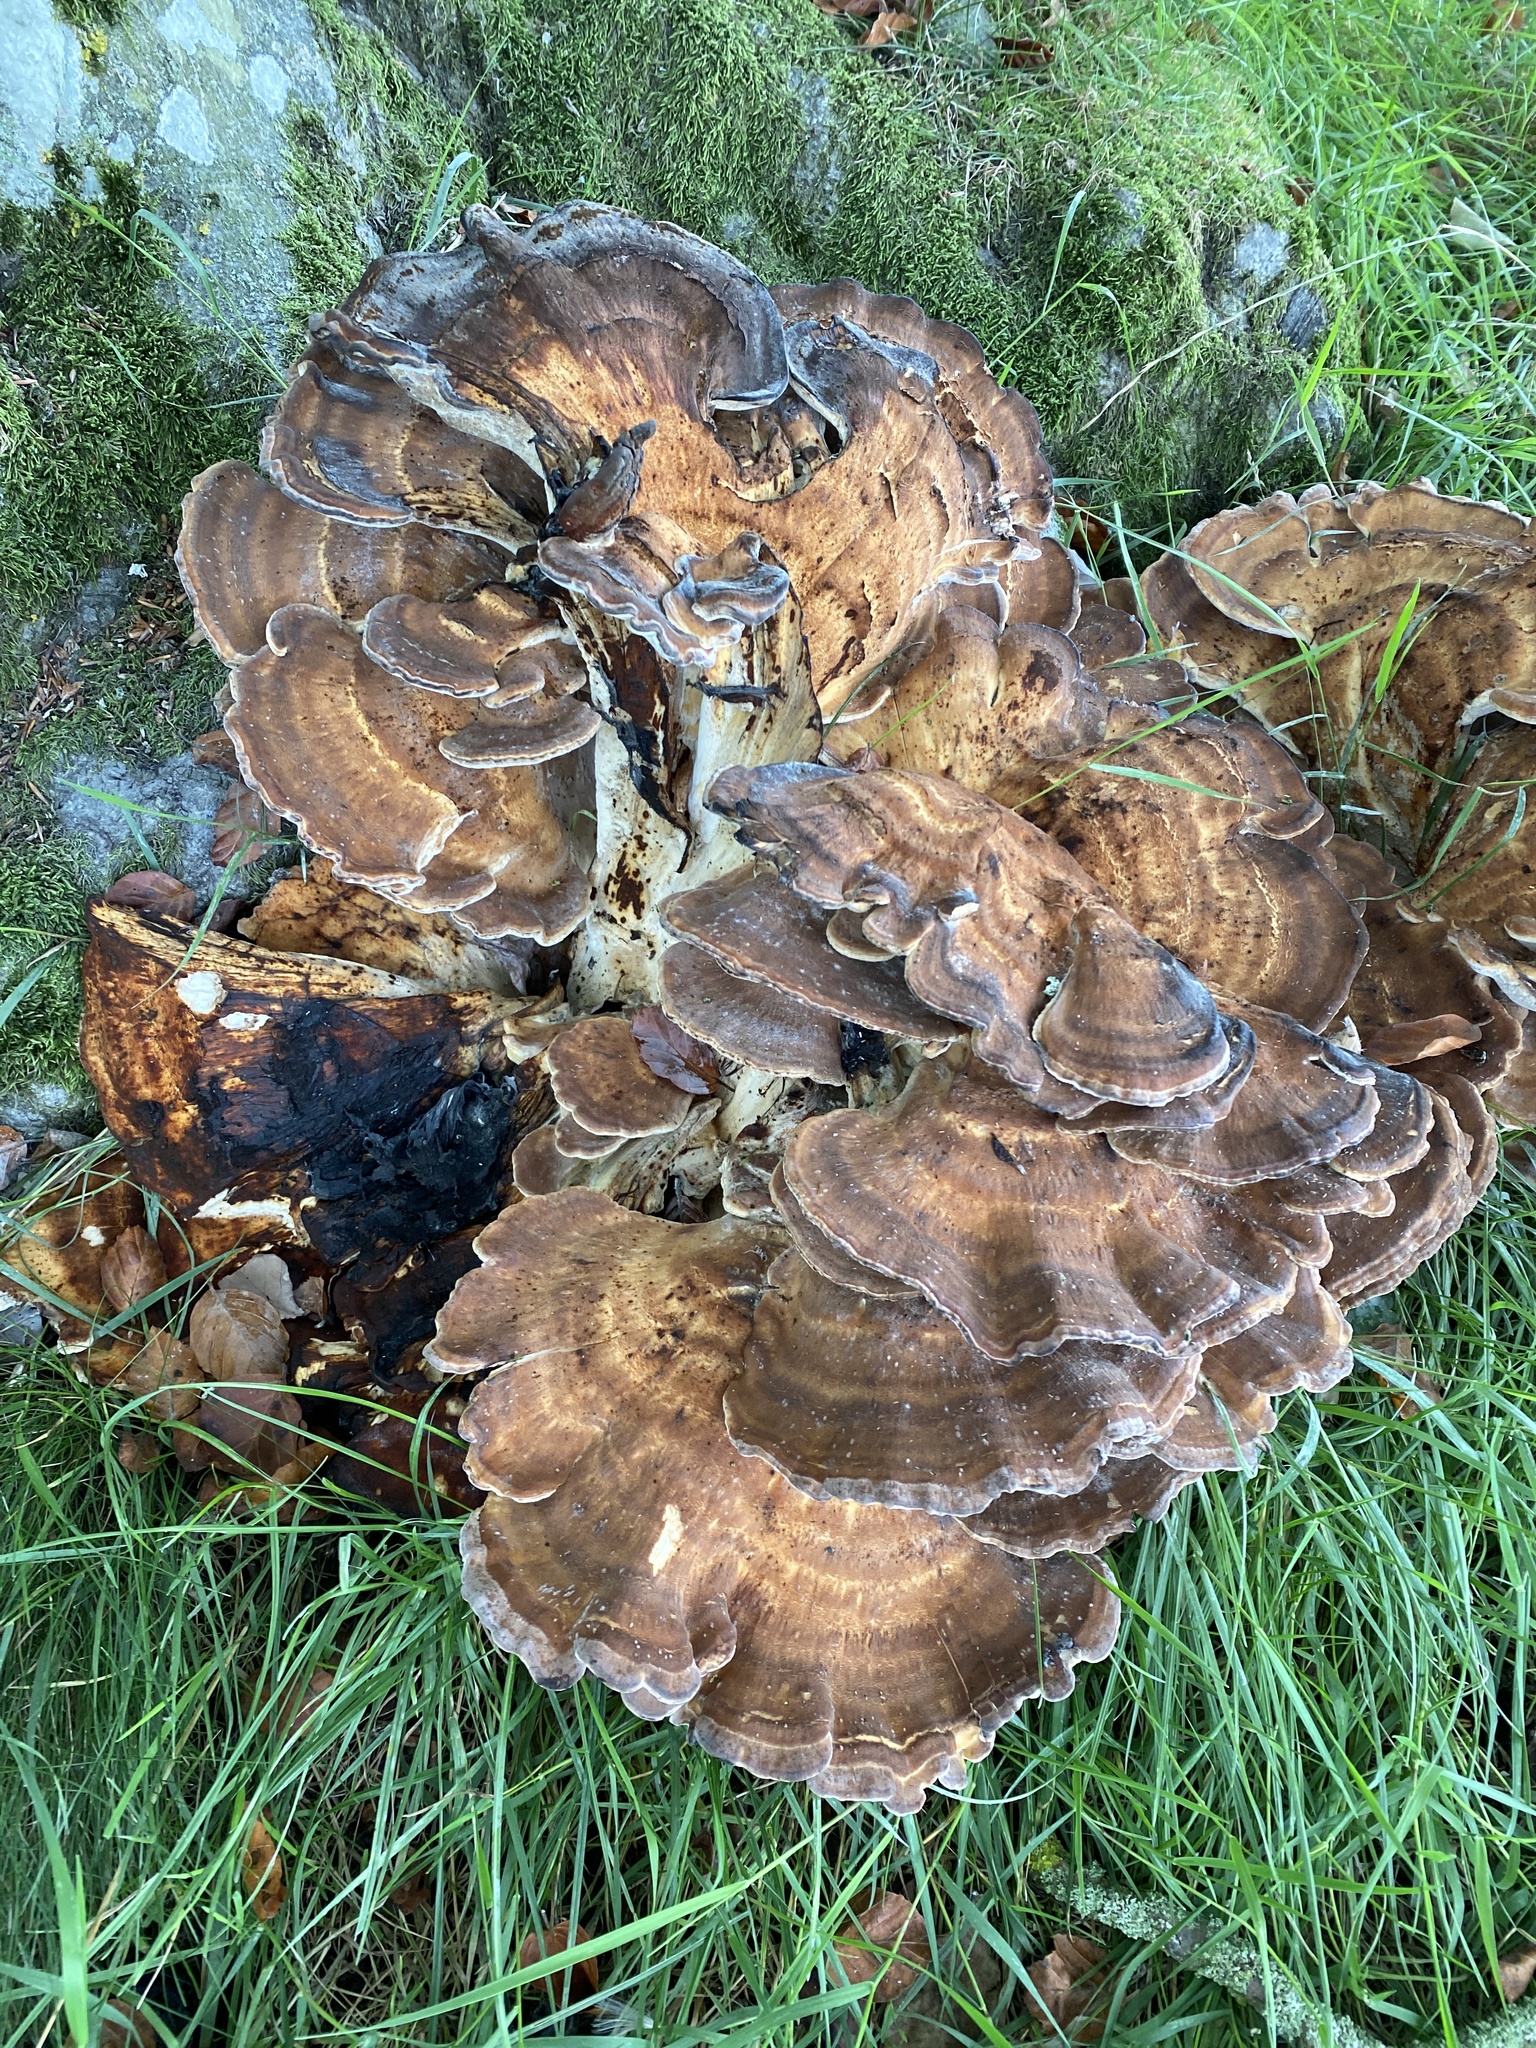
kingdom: Fungi
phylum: Basidiomycota
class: Agaricomycetes
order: Polyporales
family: Meripilaceae
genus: Meripilus
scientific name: Meripilus giganteus
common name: Giant polypore
